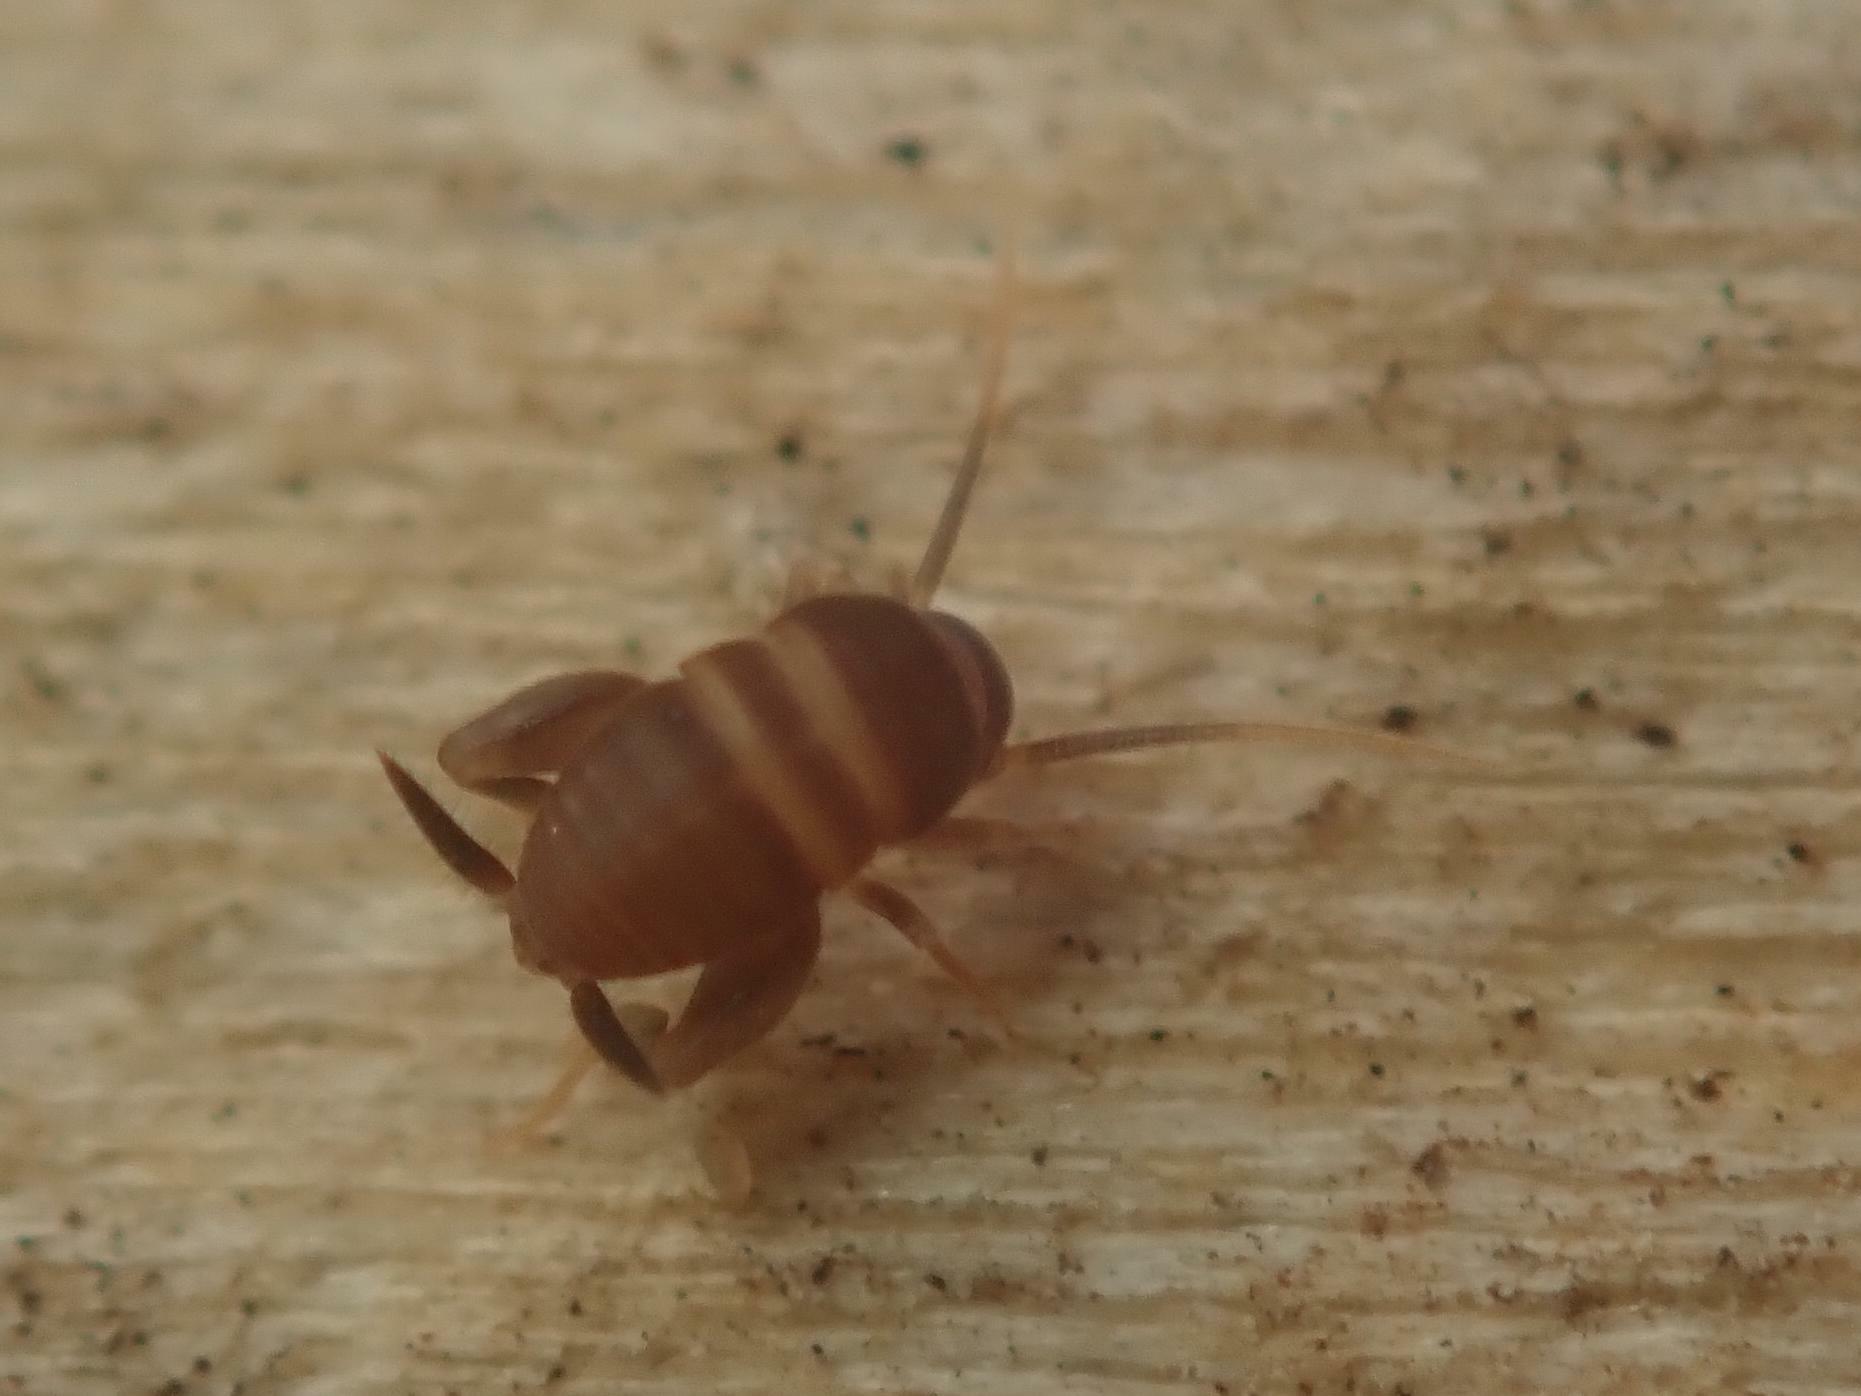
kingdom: Animalia
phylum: Arthropoda
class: Insecta
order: Orthoptera
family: Myrmecophilidae
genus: Myrmecophilus
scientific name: Myrmecophilus acervorum
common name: Ants-nest cricket
